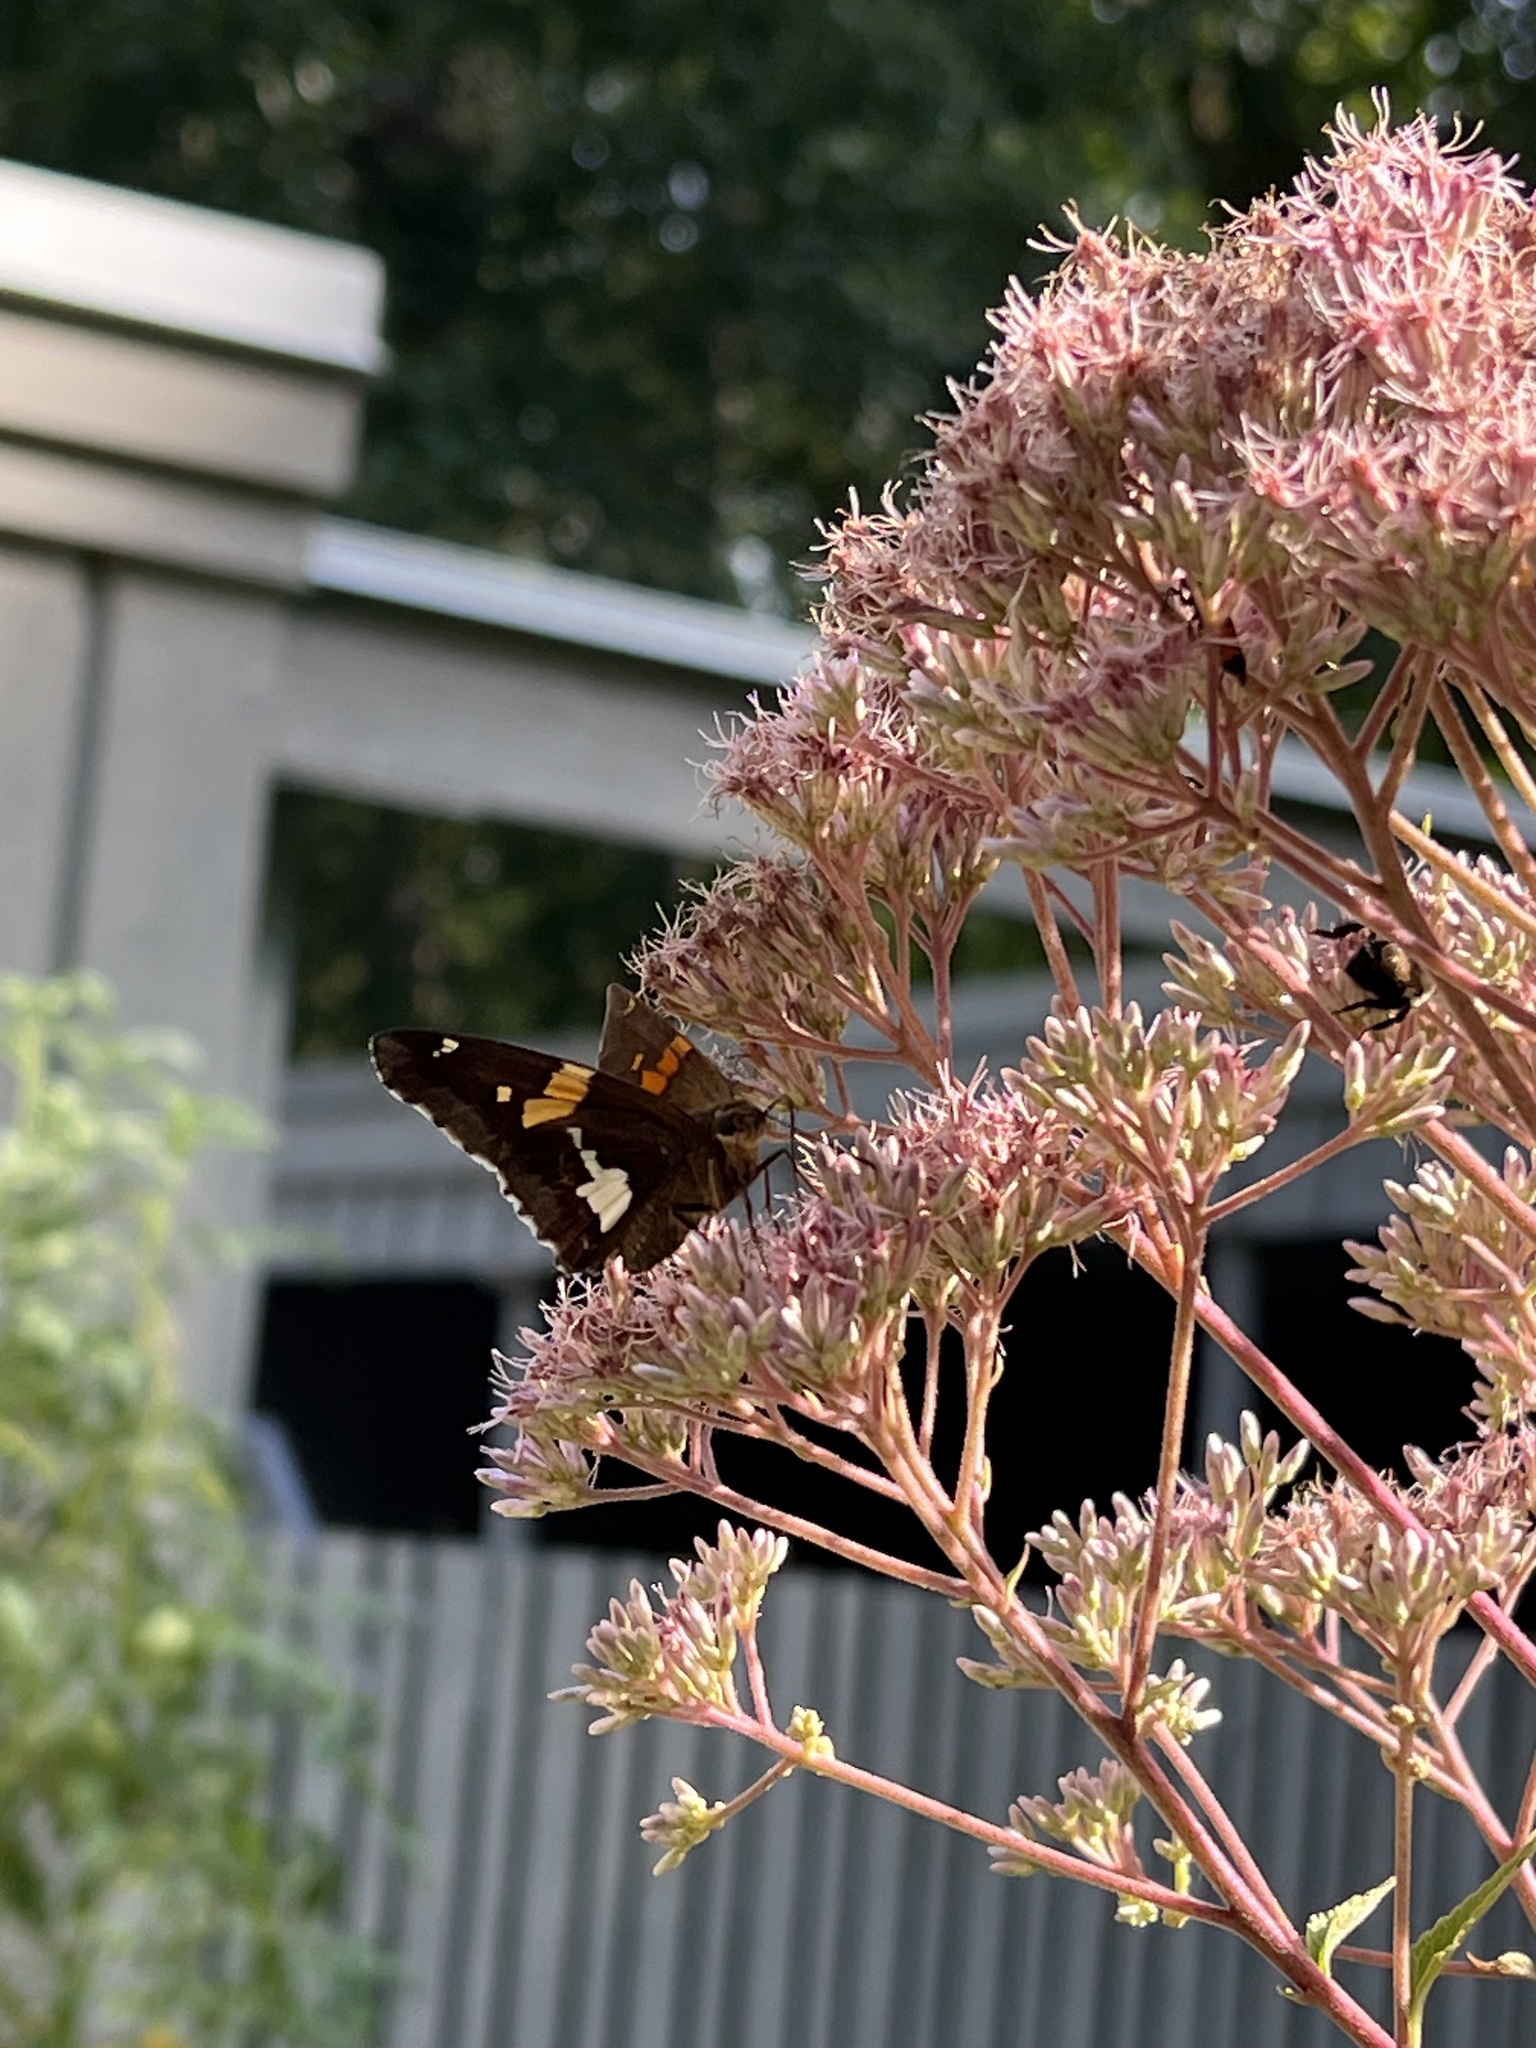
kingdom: Animalia
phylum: Arthropoda
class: Insecta
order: Lepidoptera
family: Hesperiidae
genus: Epargyreus
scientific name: Epargyreus clarus
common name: Silver-spotted skipper
